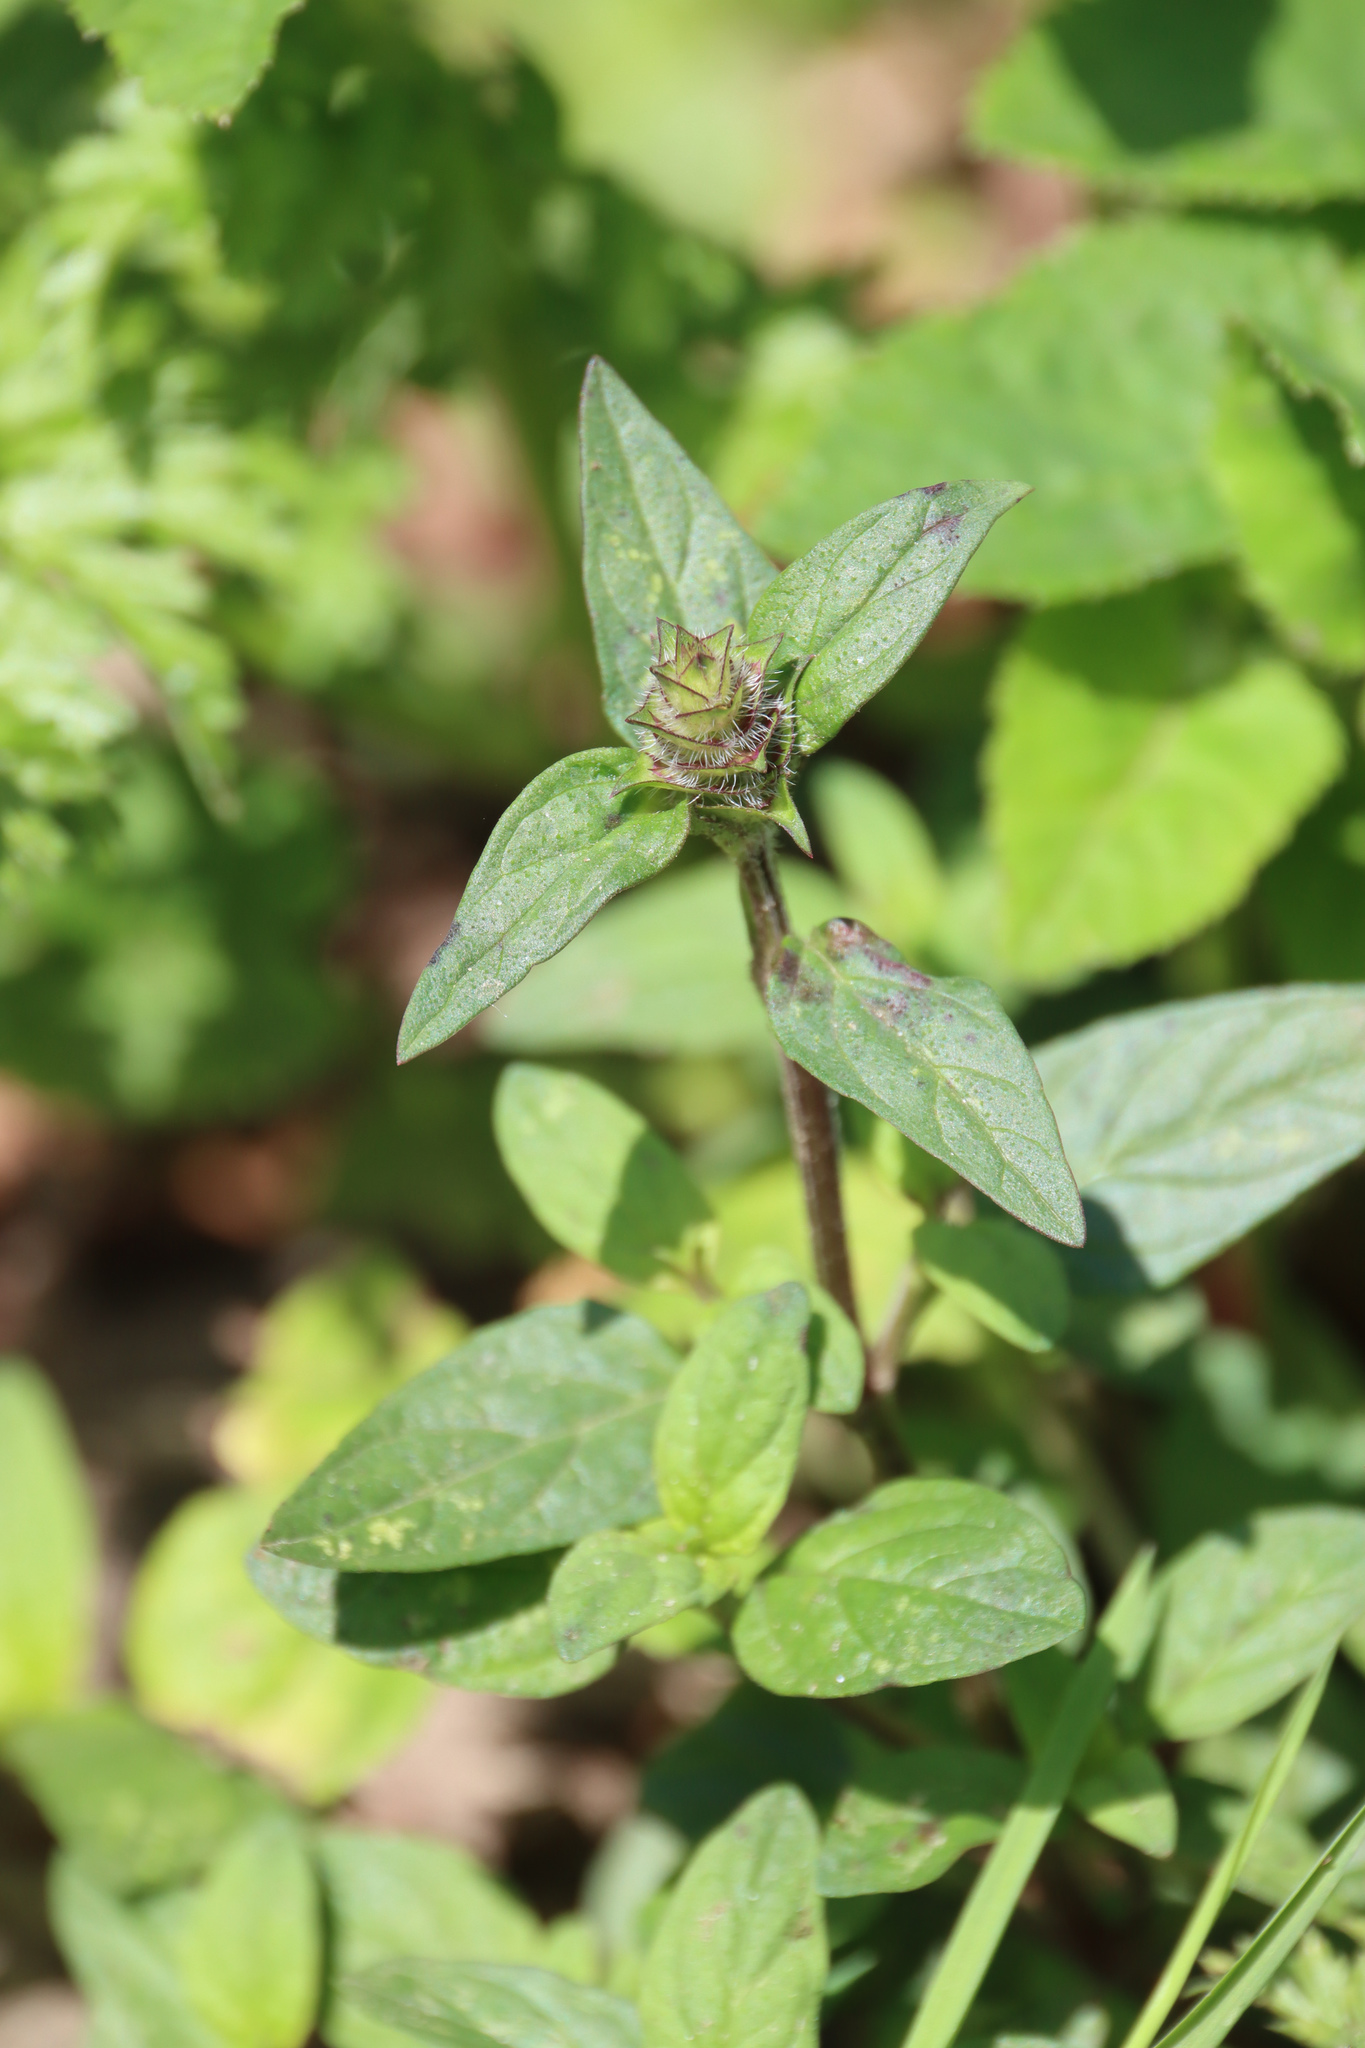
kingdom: Plantae
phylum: Tracheophyta
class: Magnoliopsida
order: Lamiales
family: Lamiaceae
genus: Prunella
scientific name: Prunella vulgaris
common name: Heal-all
